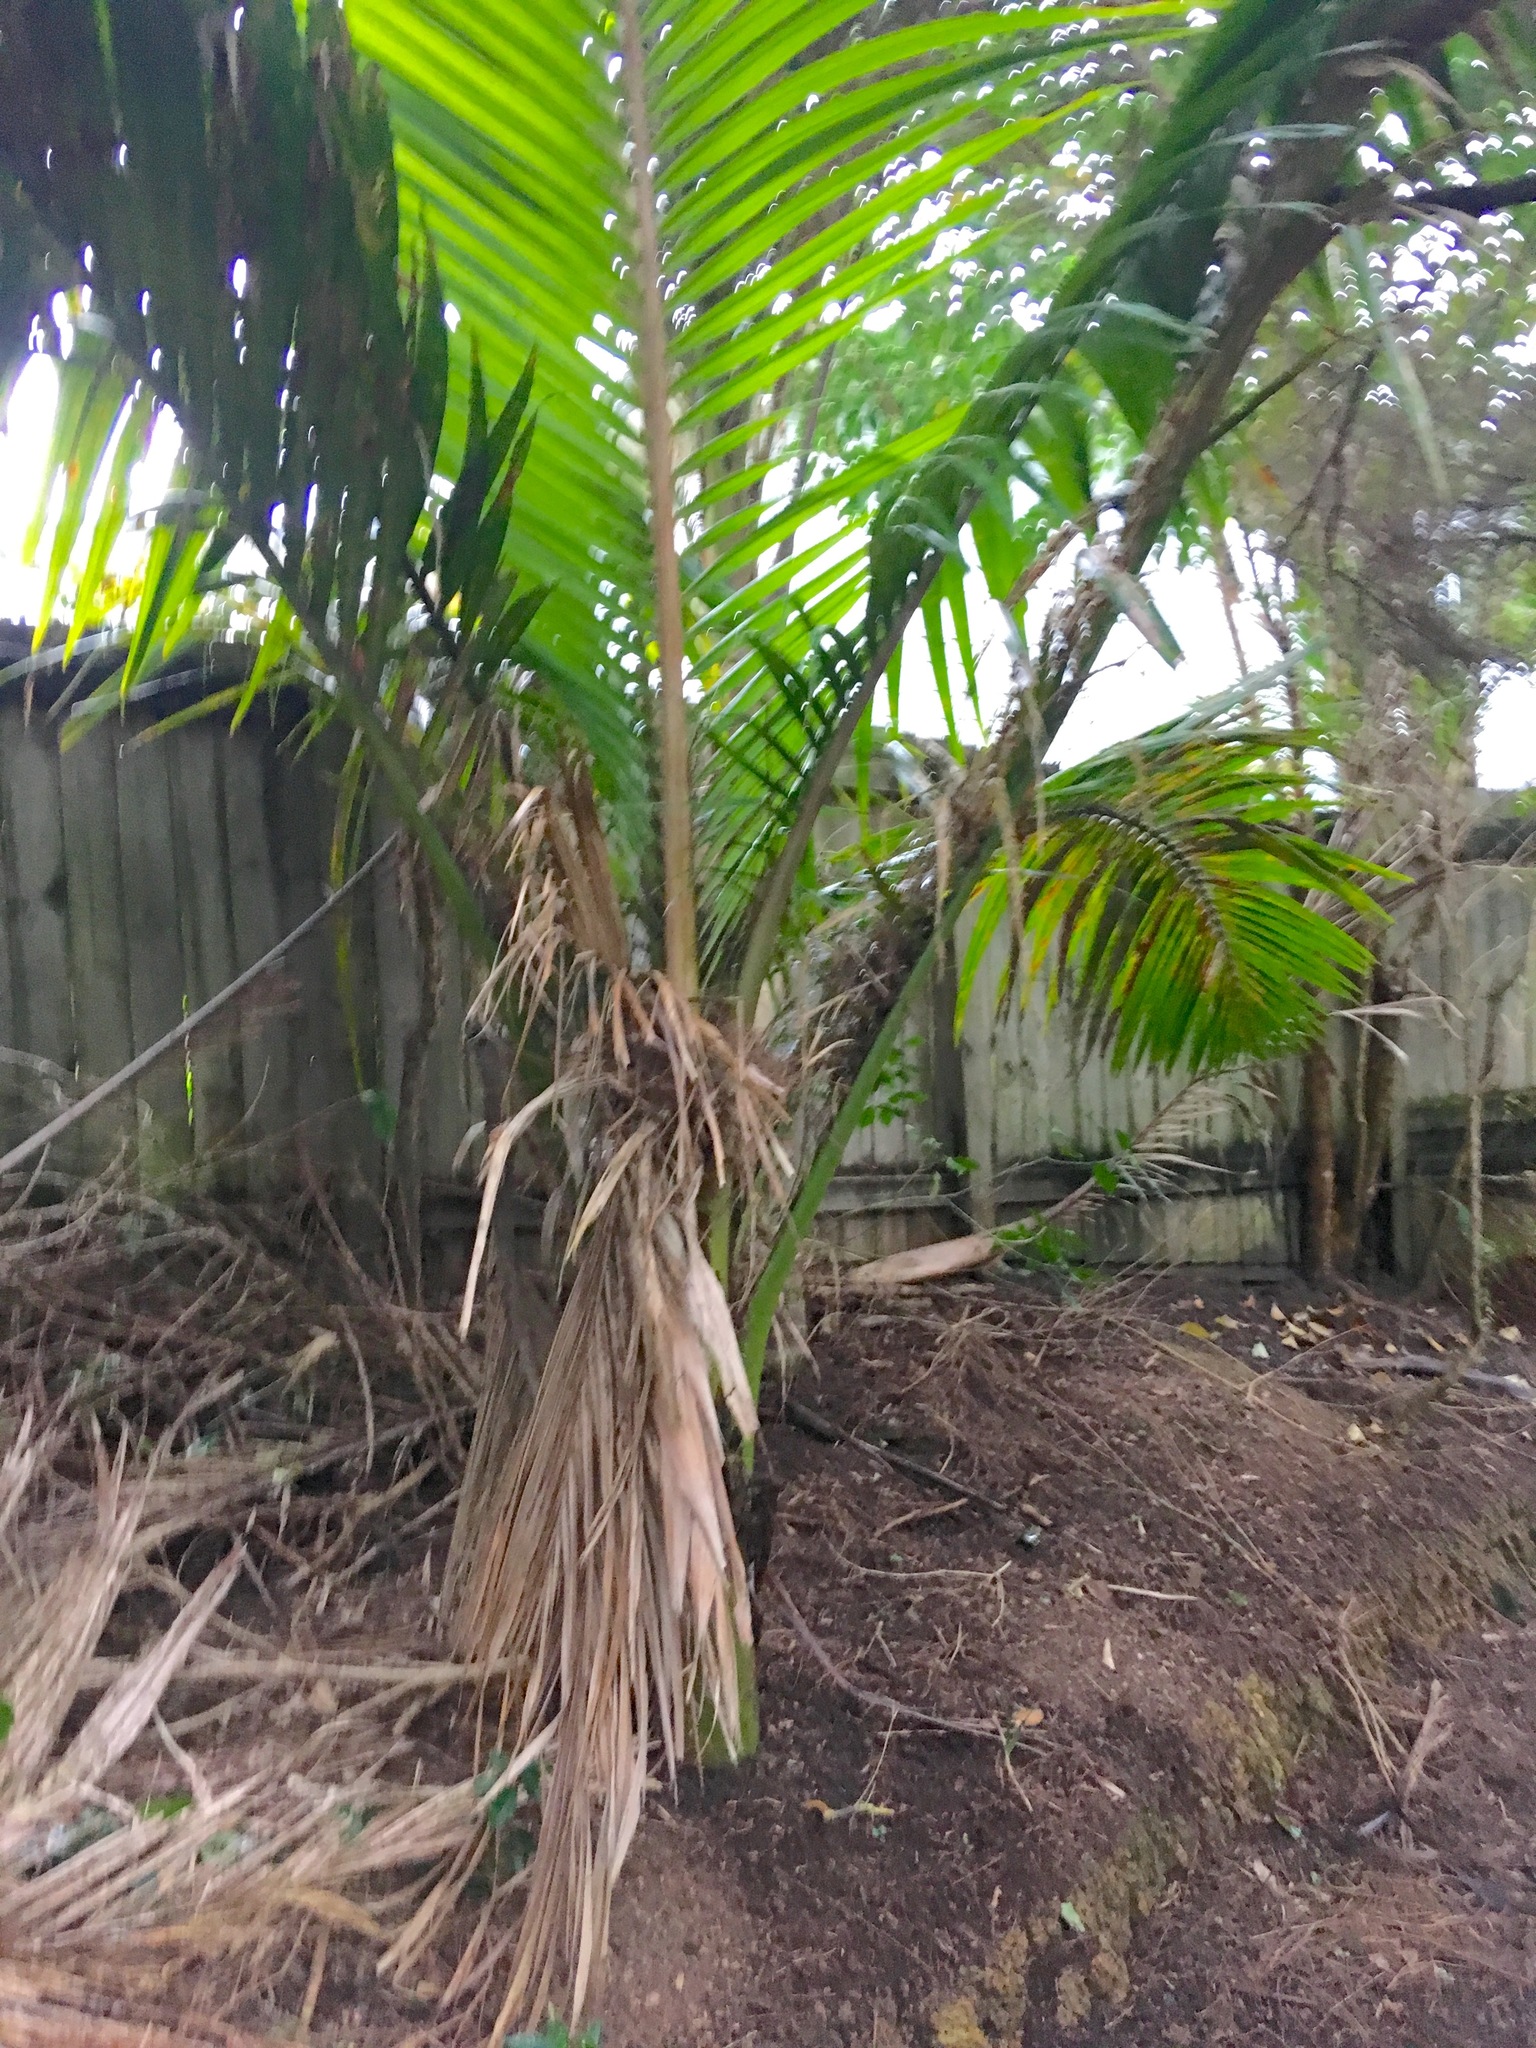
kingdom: Plantae
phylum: Tracheophyta
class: Liliopsida
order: Arecales
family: Arecaceae
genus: Rhopalostylis
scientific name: Rhopalostylis sapida
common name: Feather-duster palm
